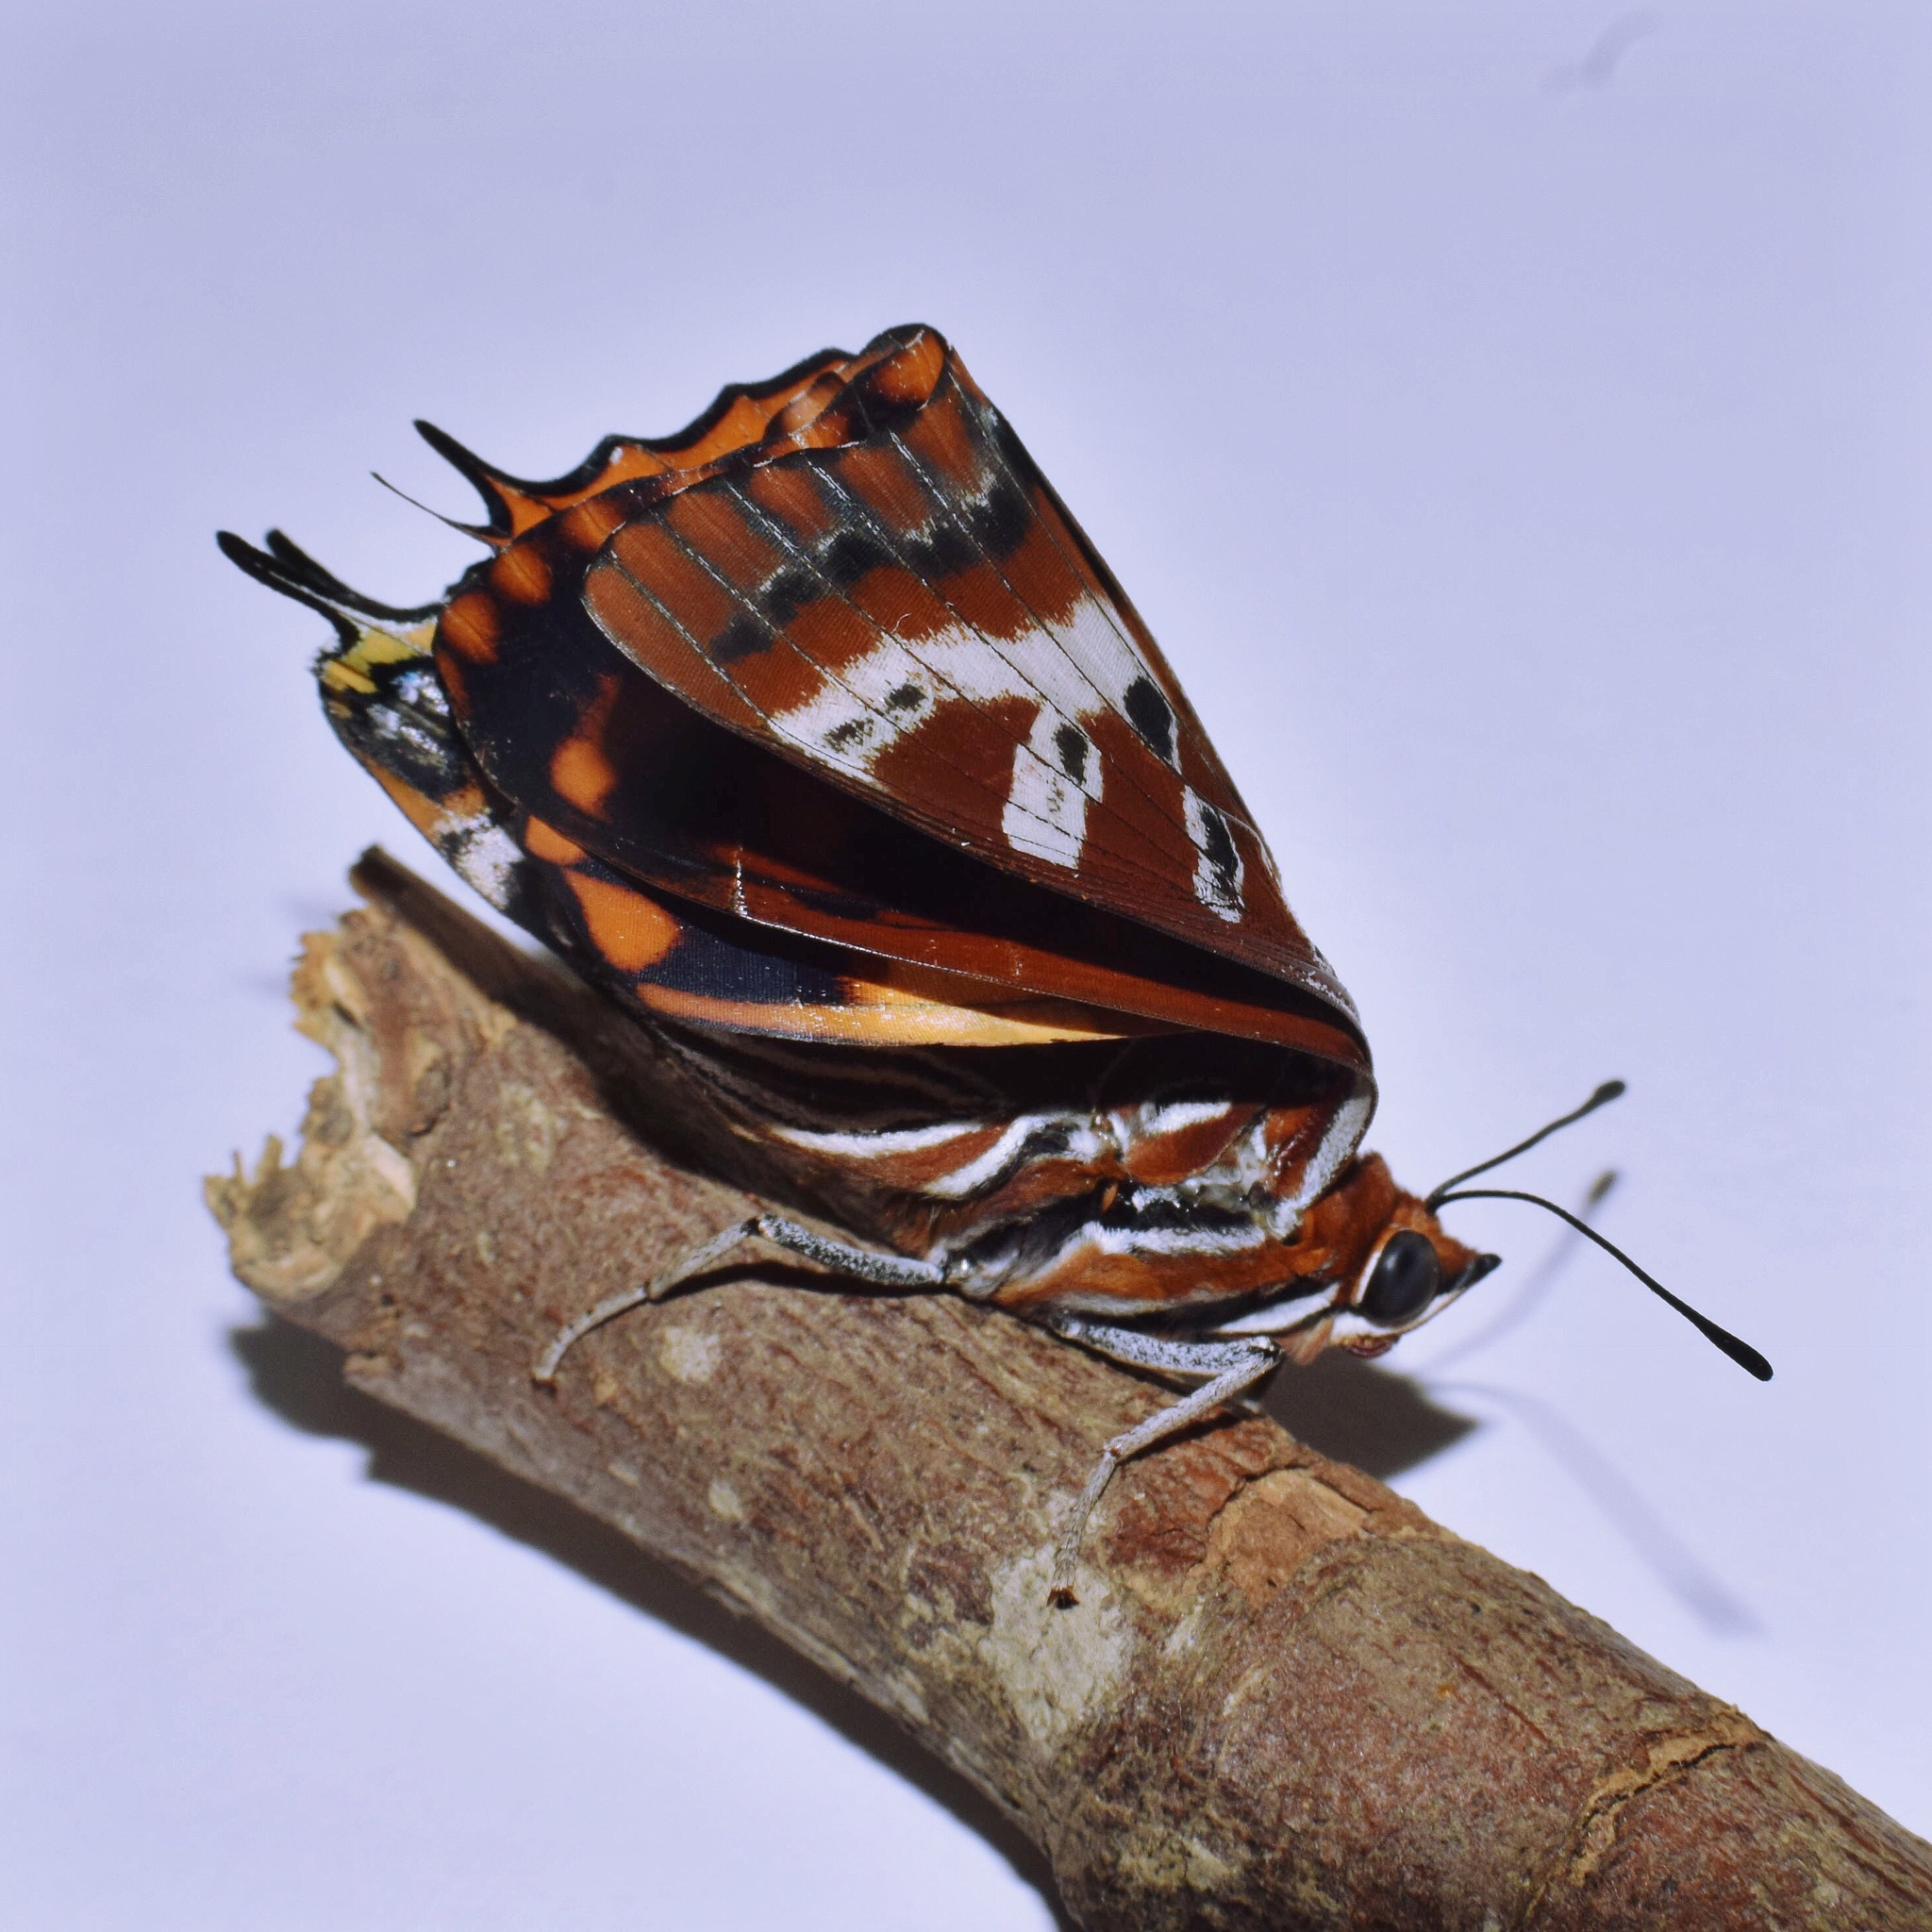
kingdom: Animalia
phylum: Arthropoda
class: Insecta
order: Lepidoptera
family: Nymphalidae
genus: Charaxes
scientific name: Charaxes druceanus
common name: Silver-barred charaxes
